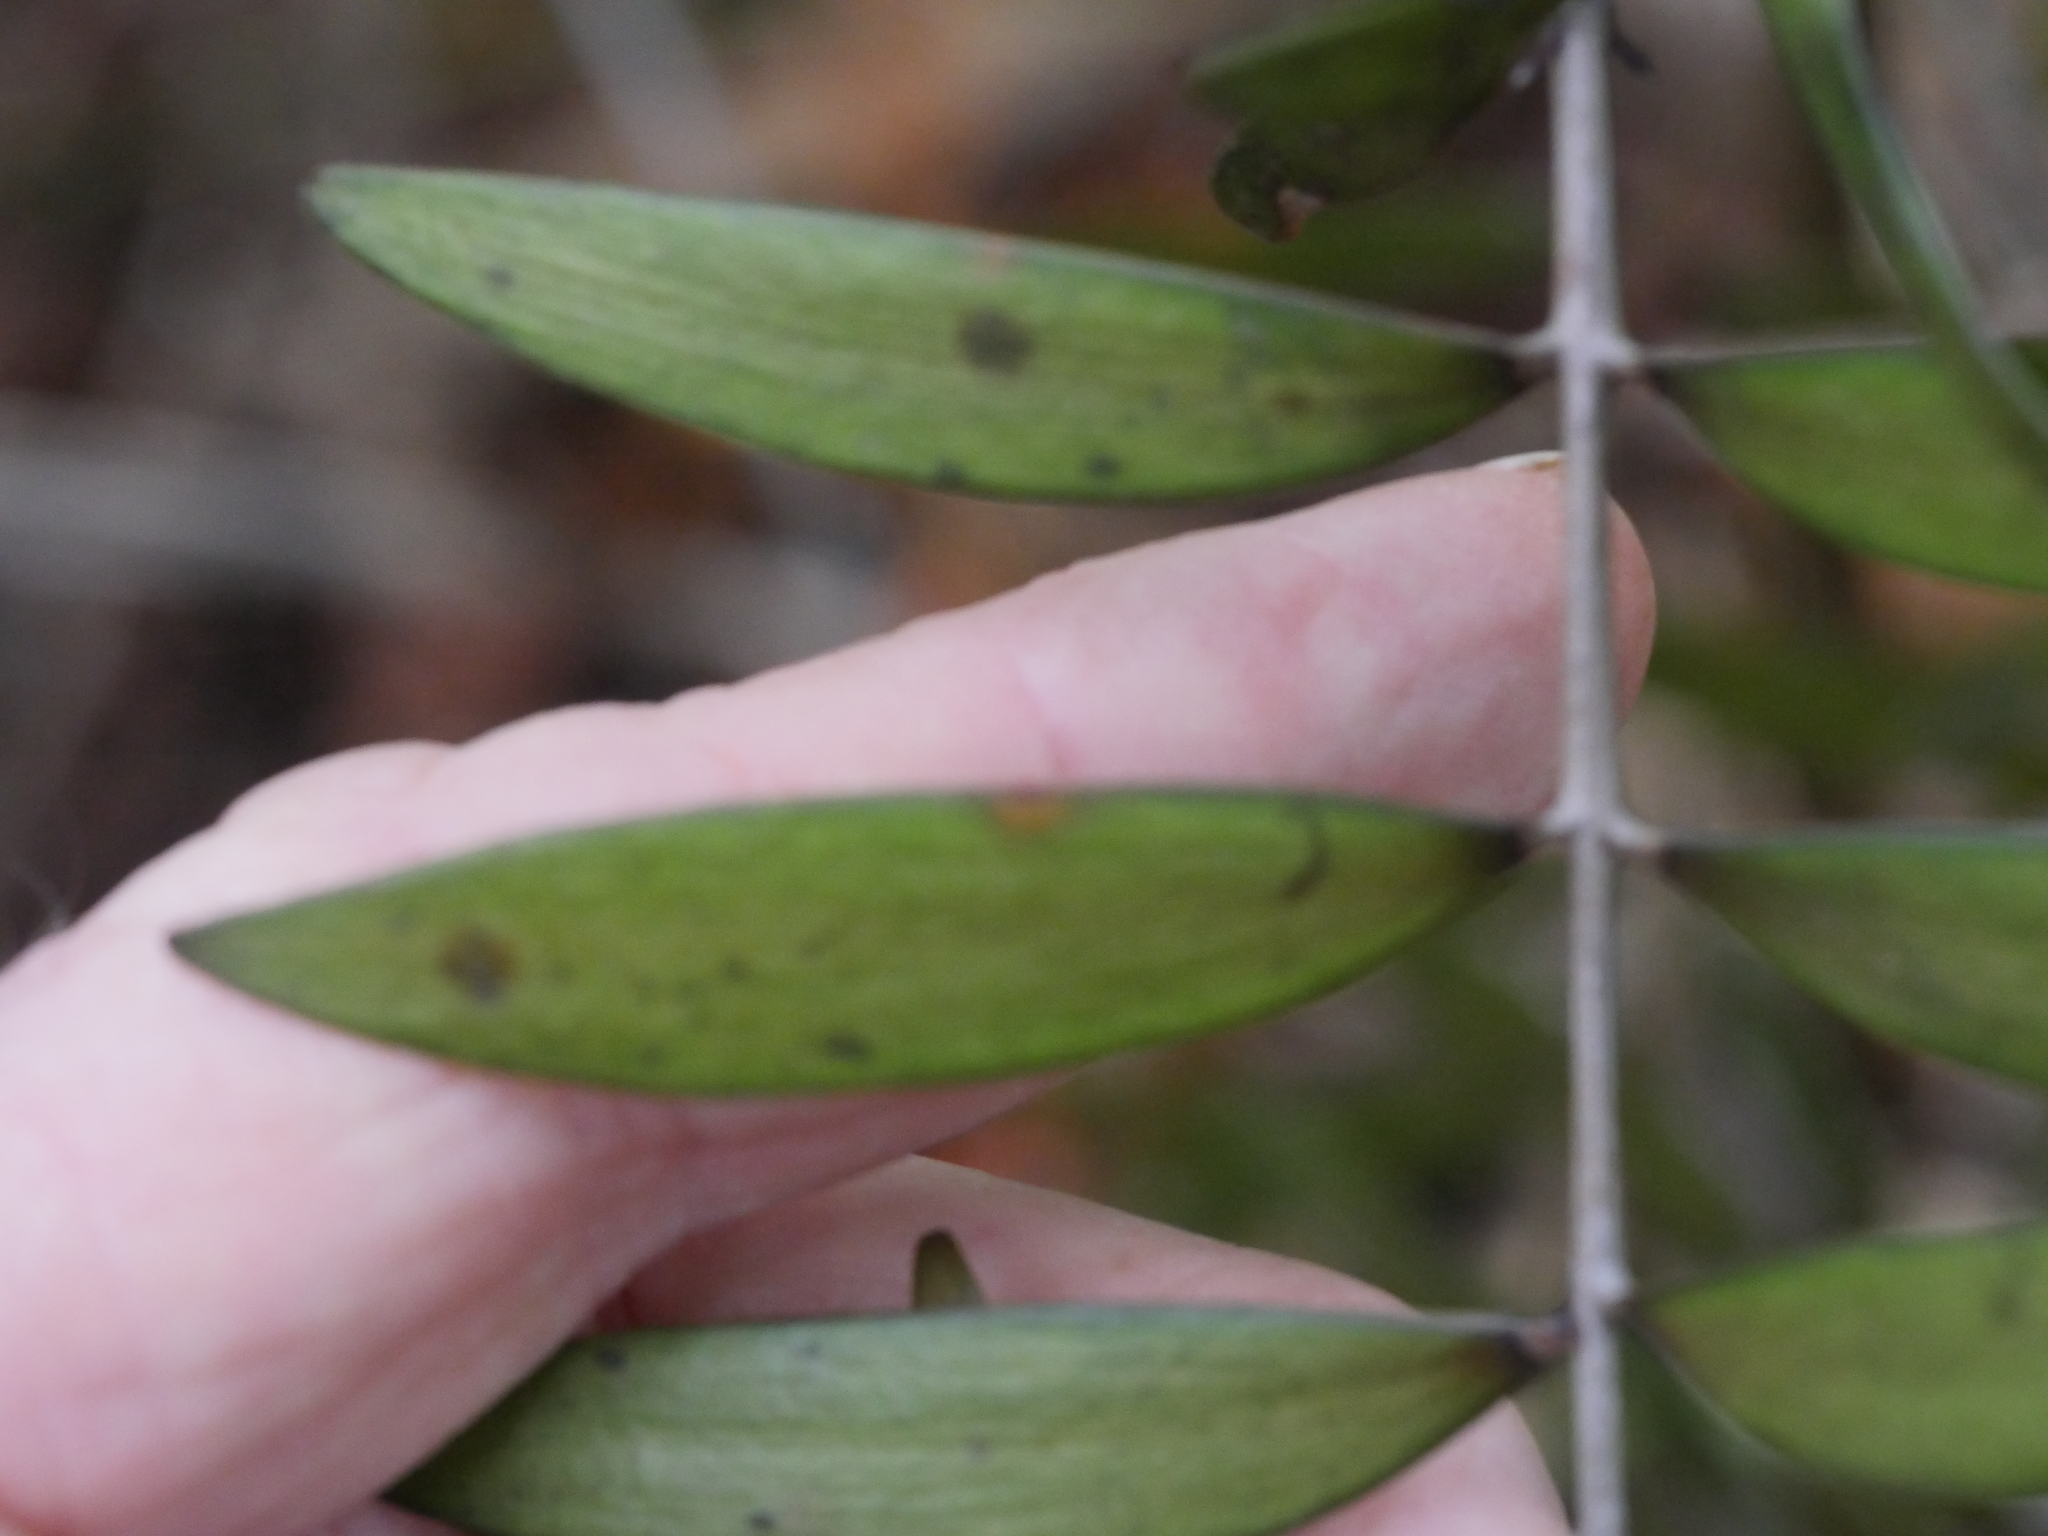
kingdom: Plantae
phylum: Tracheophyta
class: Pinopsida
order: Pinales
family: Araucariaceae
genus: Agathis
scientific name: Agathis australis
